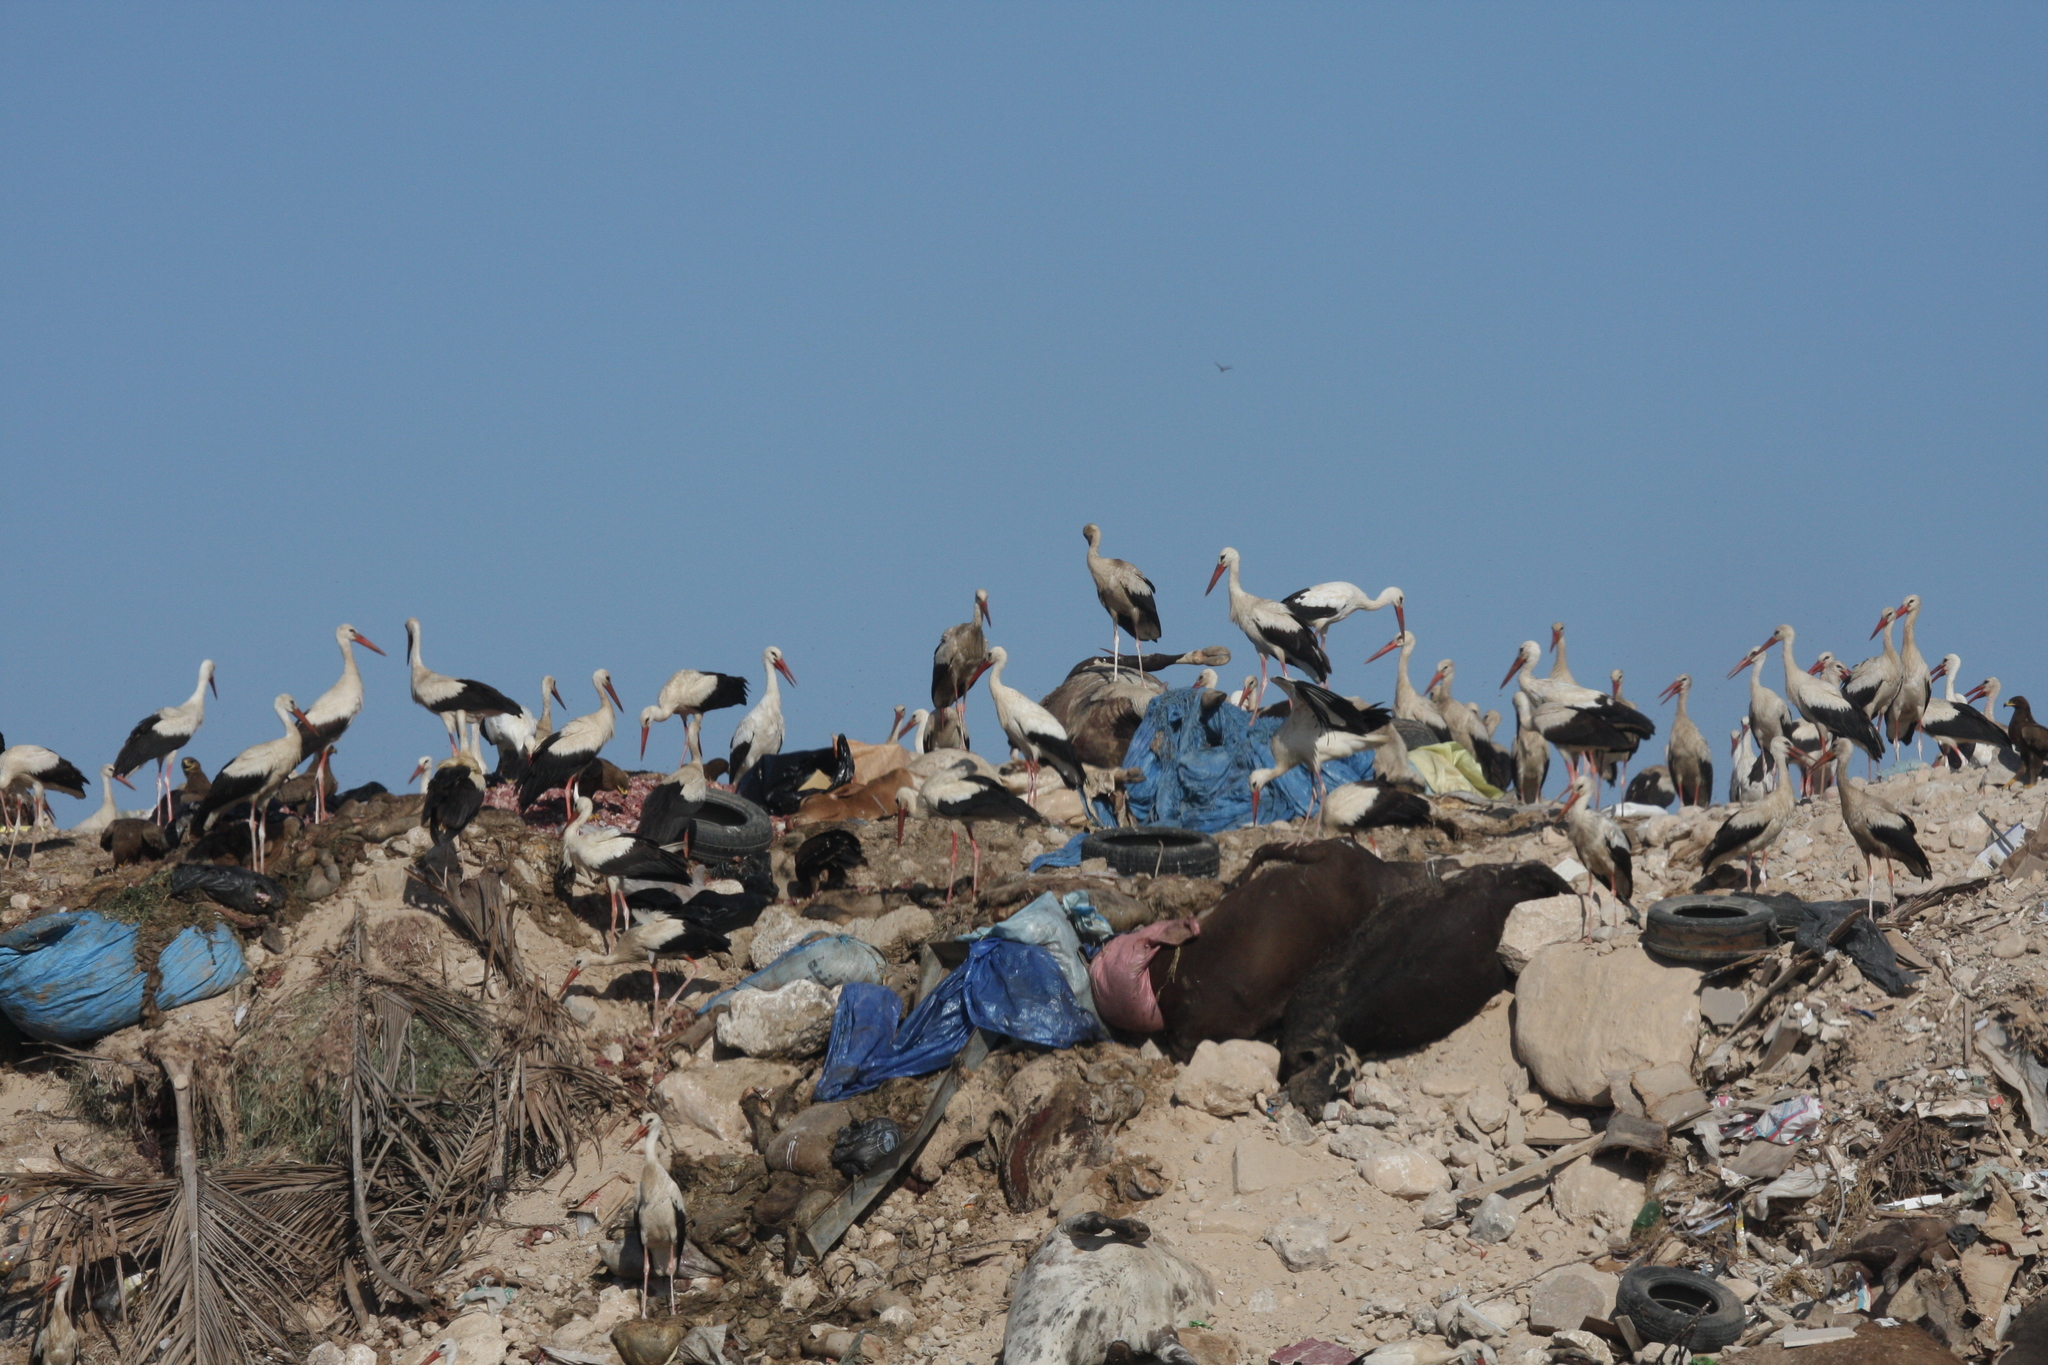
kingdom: Animalia
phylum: Chordata
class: Aves
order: Ciconiiformes
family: Ciconiidae
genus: Ciconia
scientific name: Ciconia ciconia
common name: White stork
